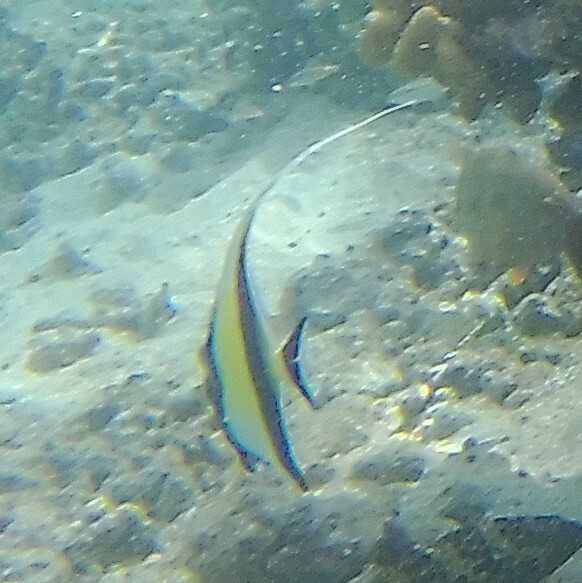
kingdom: Animalia
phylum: Chordata
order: Perciformes
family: Zanclidae
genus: Zanclus
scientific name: Zanclus cornutus
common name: Moorish idol
